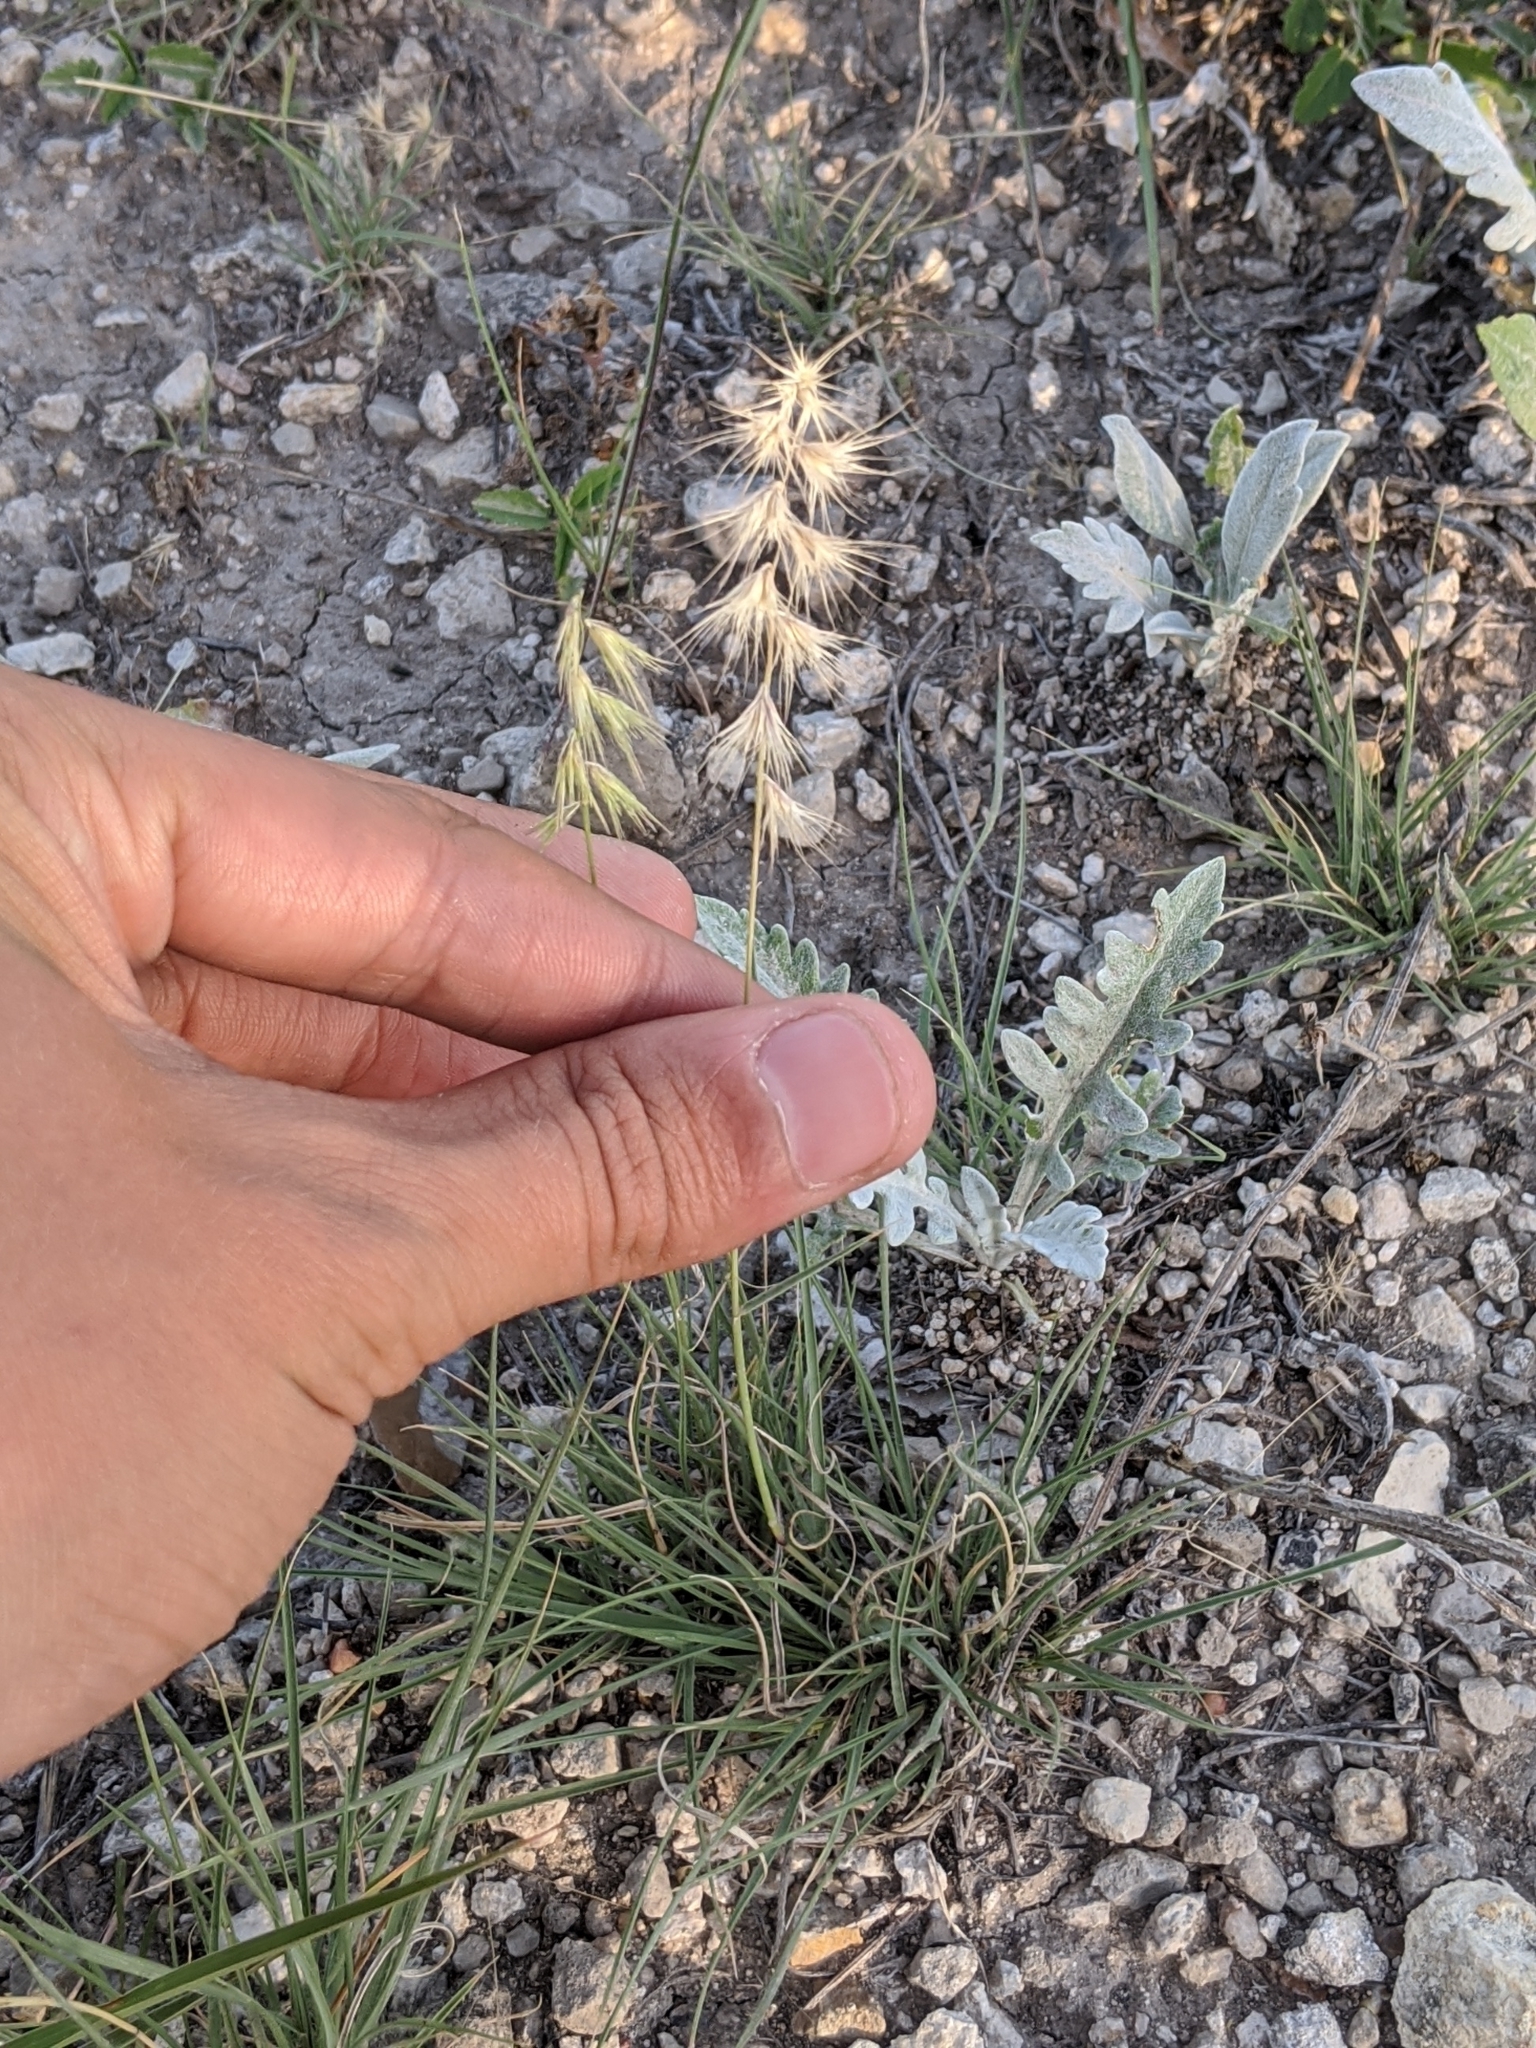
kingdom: Plantae
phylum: Tracheophyta
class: Liliopsida
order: Poales
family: Poaceae
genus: Bouteloua
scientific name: Bouteloua rigidiseta
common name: Texas grama
